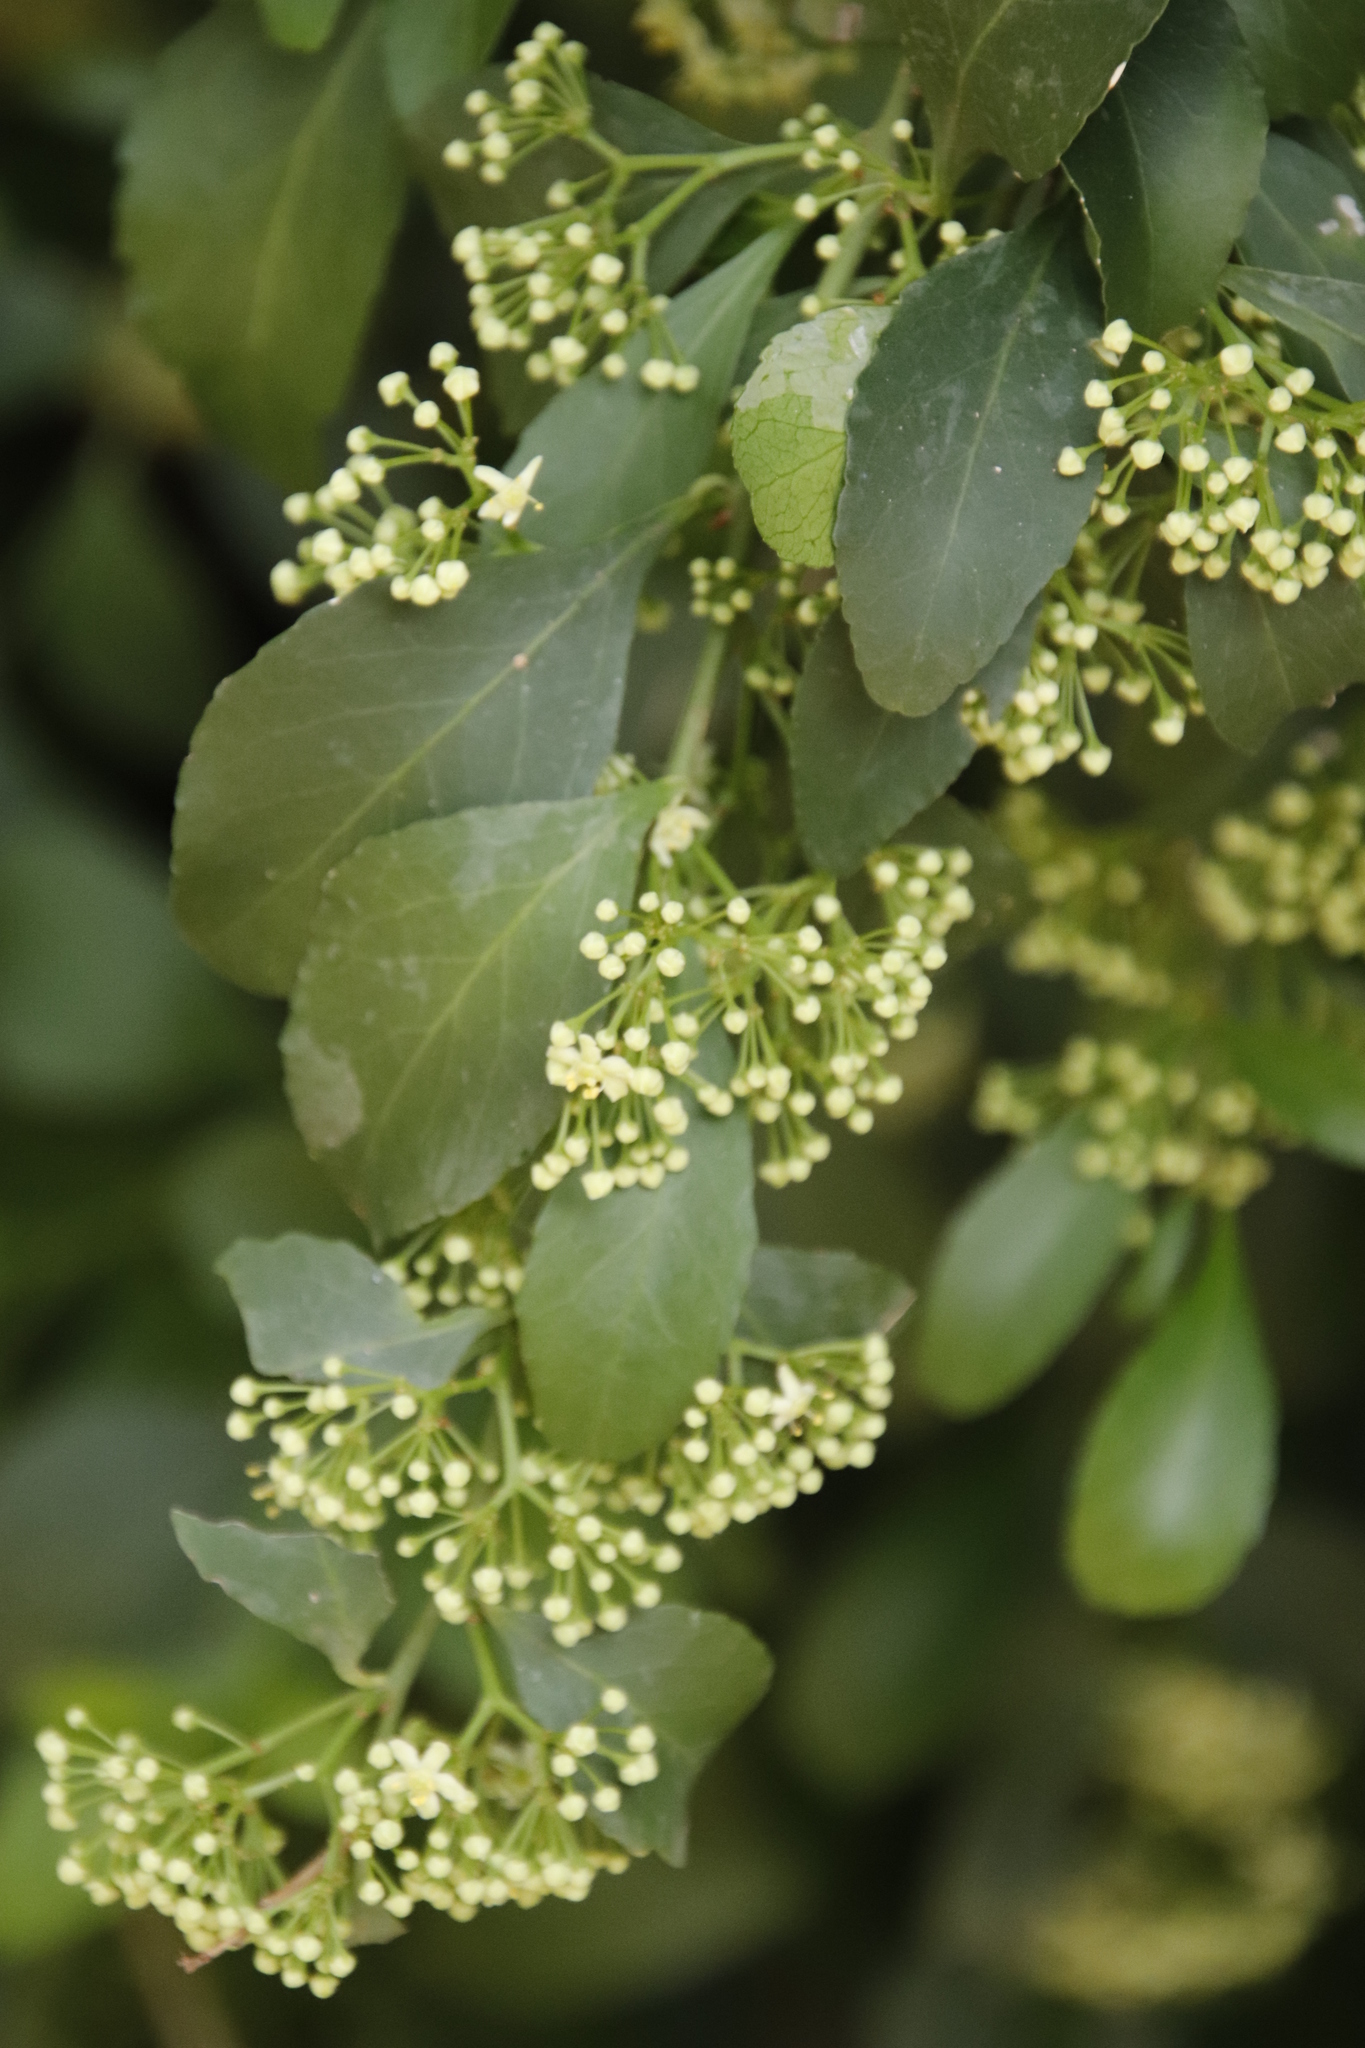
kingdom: Plantae
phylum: Tracheophyta
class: Magnoliopsida
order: Celastrales
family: Celastraceae
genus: Gymnosporia
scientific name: Gymnosporia buxifolia
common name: Common spike-thorn
